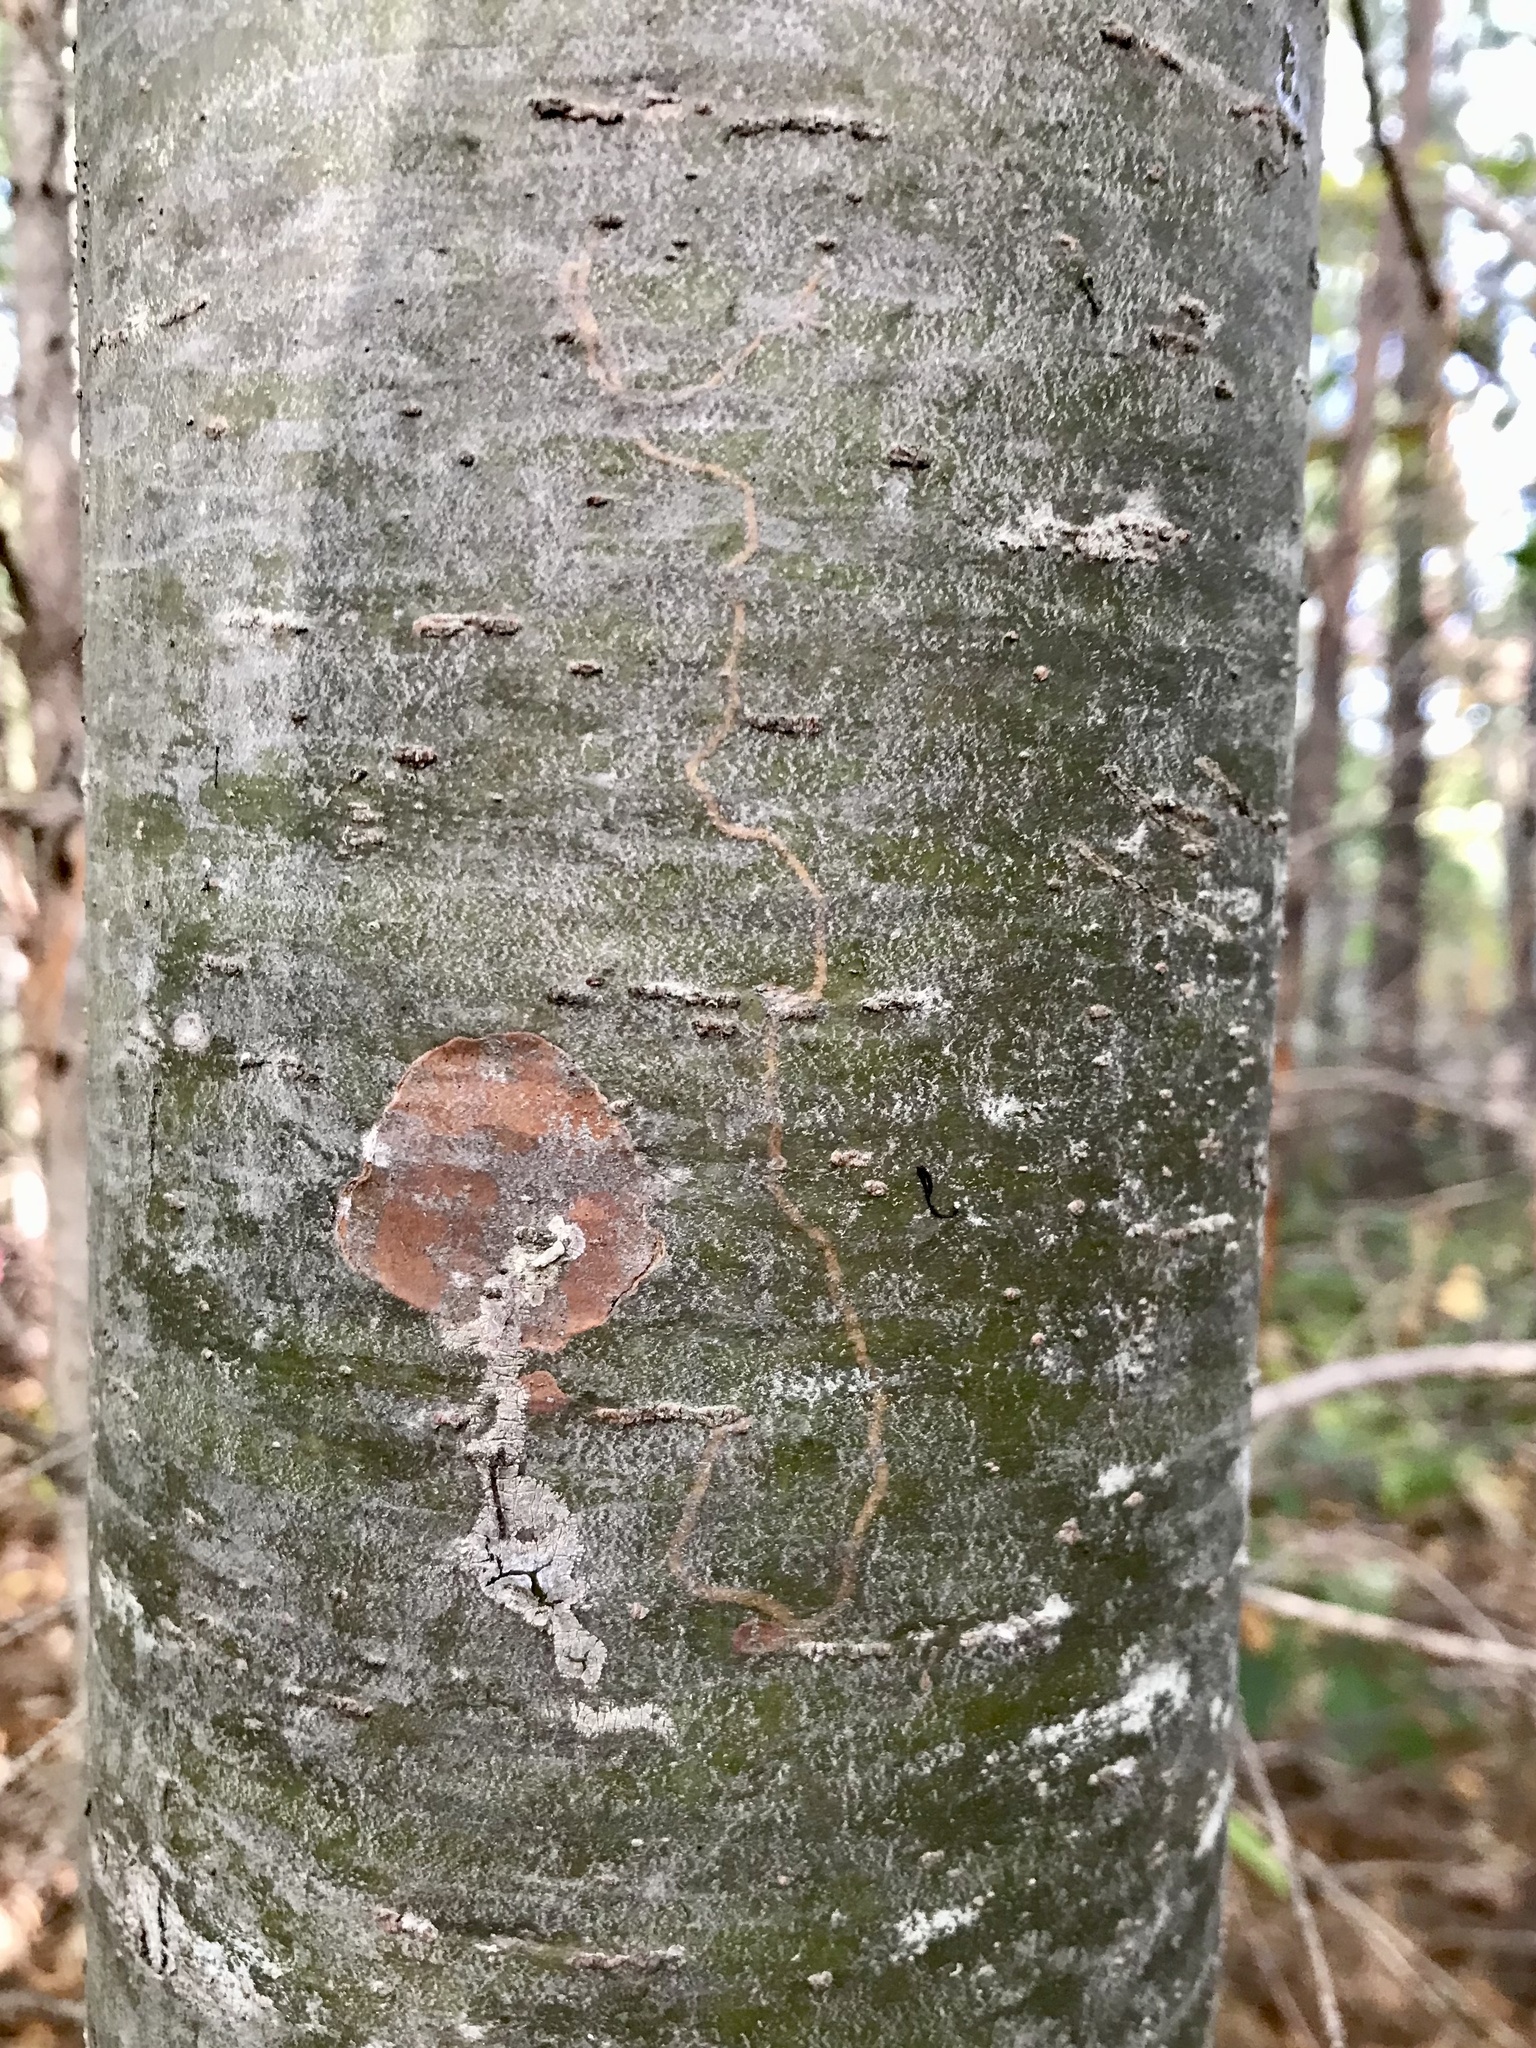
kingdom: Animalia
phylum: Arthropoda
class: Insecta
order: Lepidoptera
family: Gracillariidae
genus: Marmara
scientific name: Marmara fasciella
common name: White pine barkminer moth
